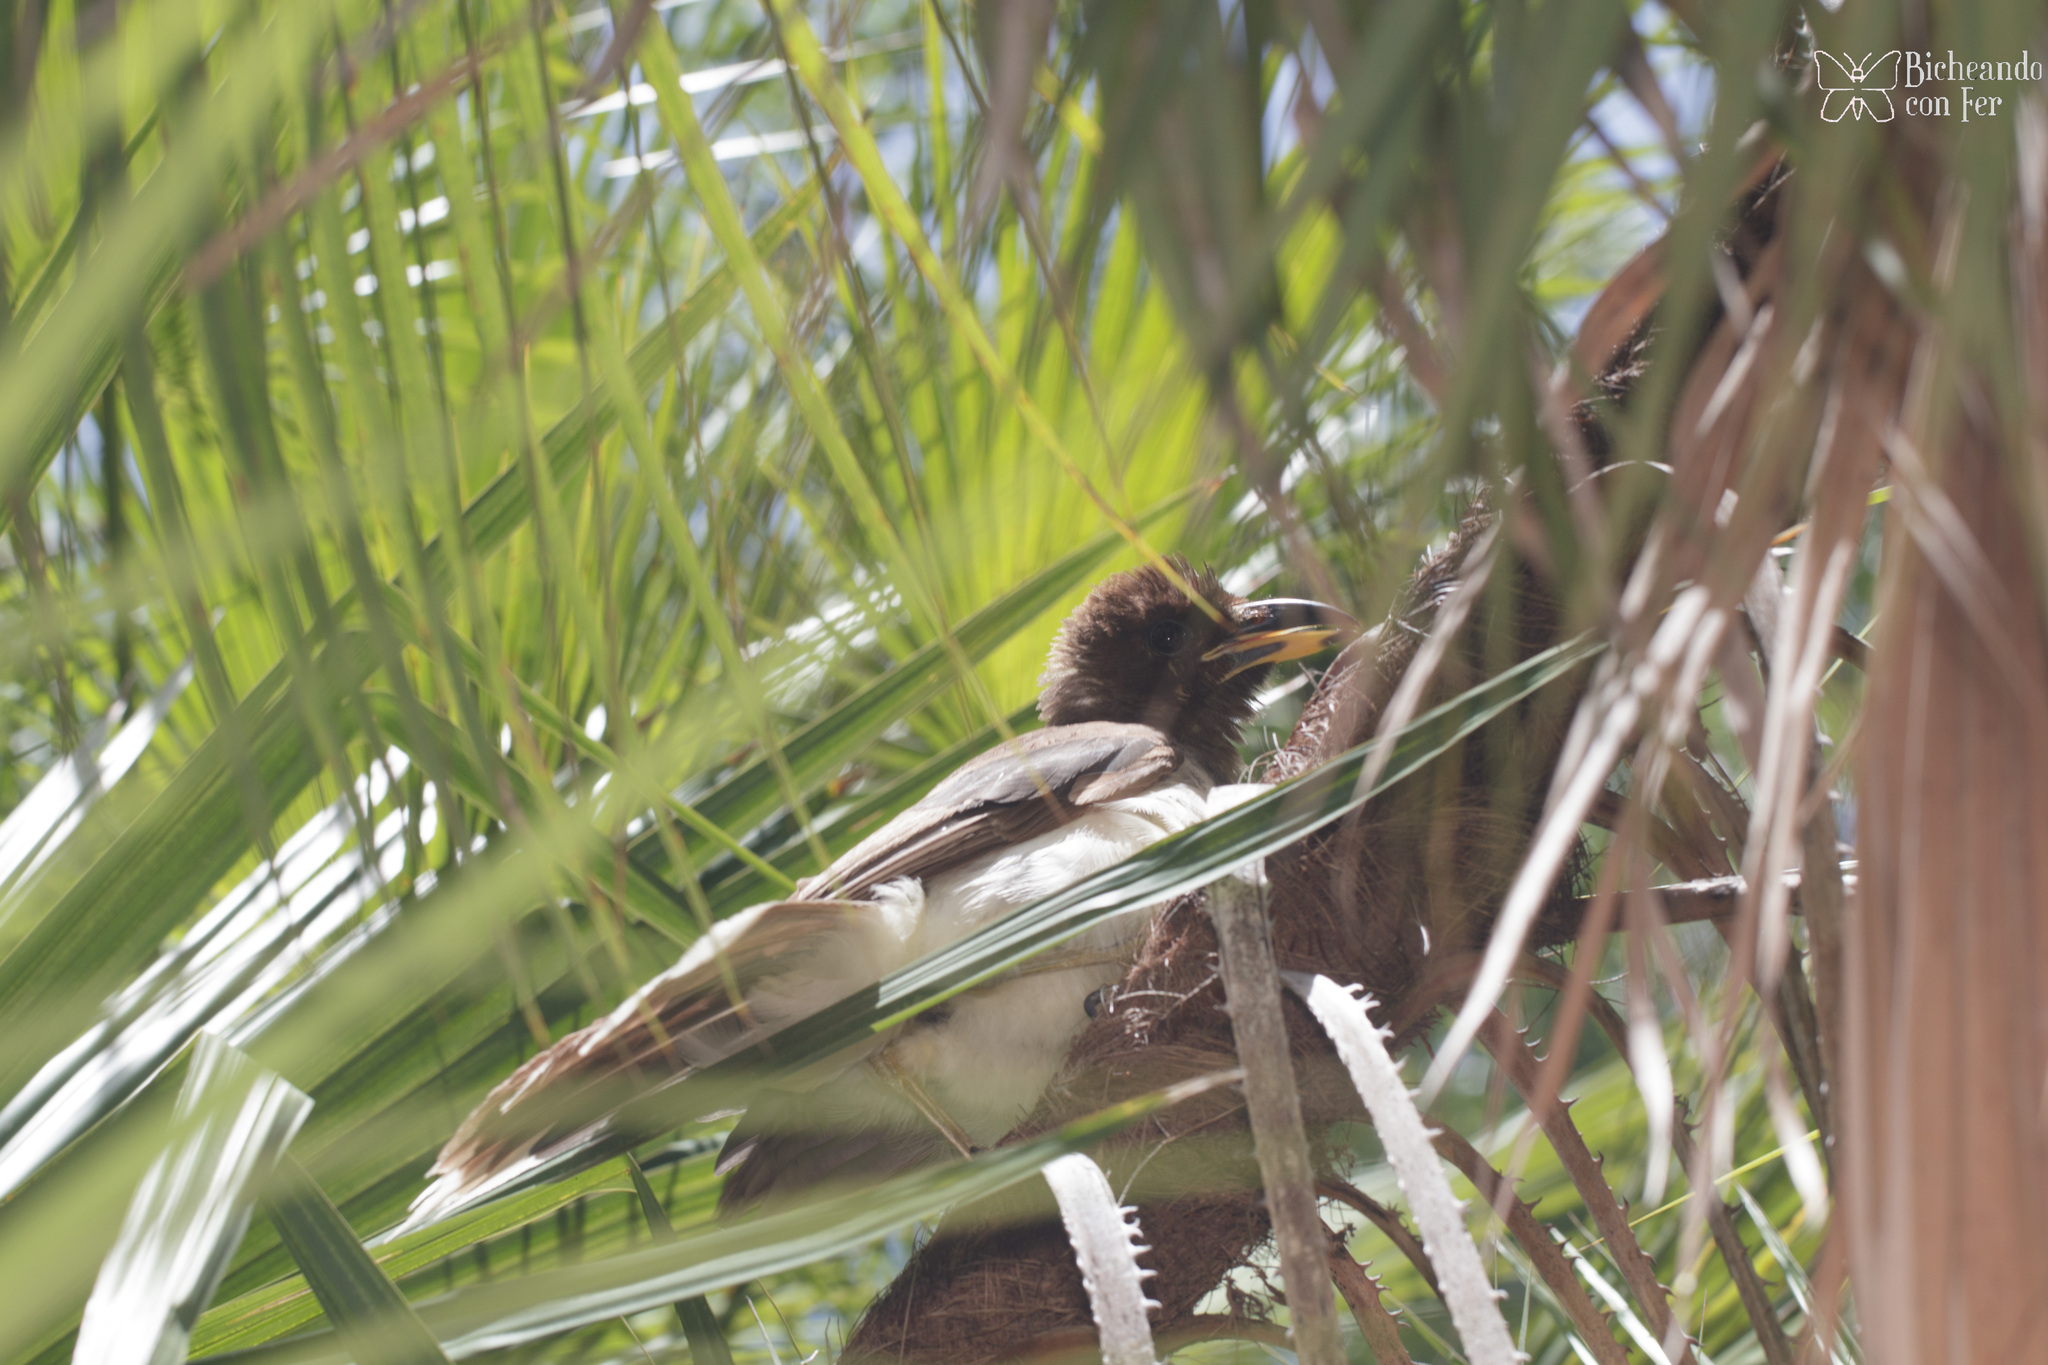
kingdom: Animalia
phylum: Chordata
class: Aves
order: Passeriformes
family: Corvidae
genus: Psilorhinus
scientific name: Psilorhinus morio
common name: Brown jay
